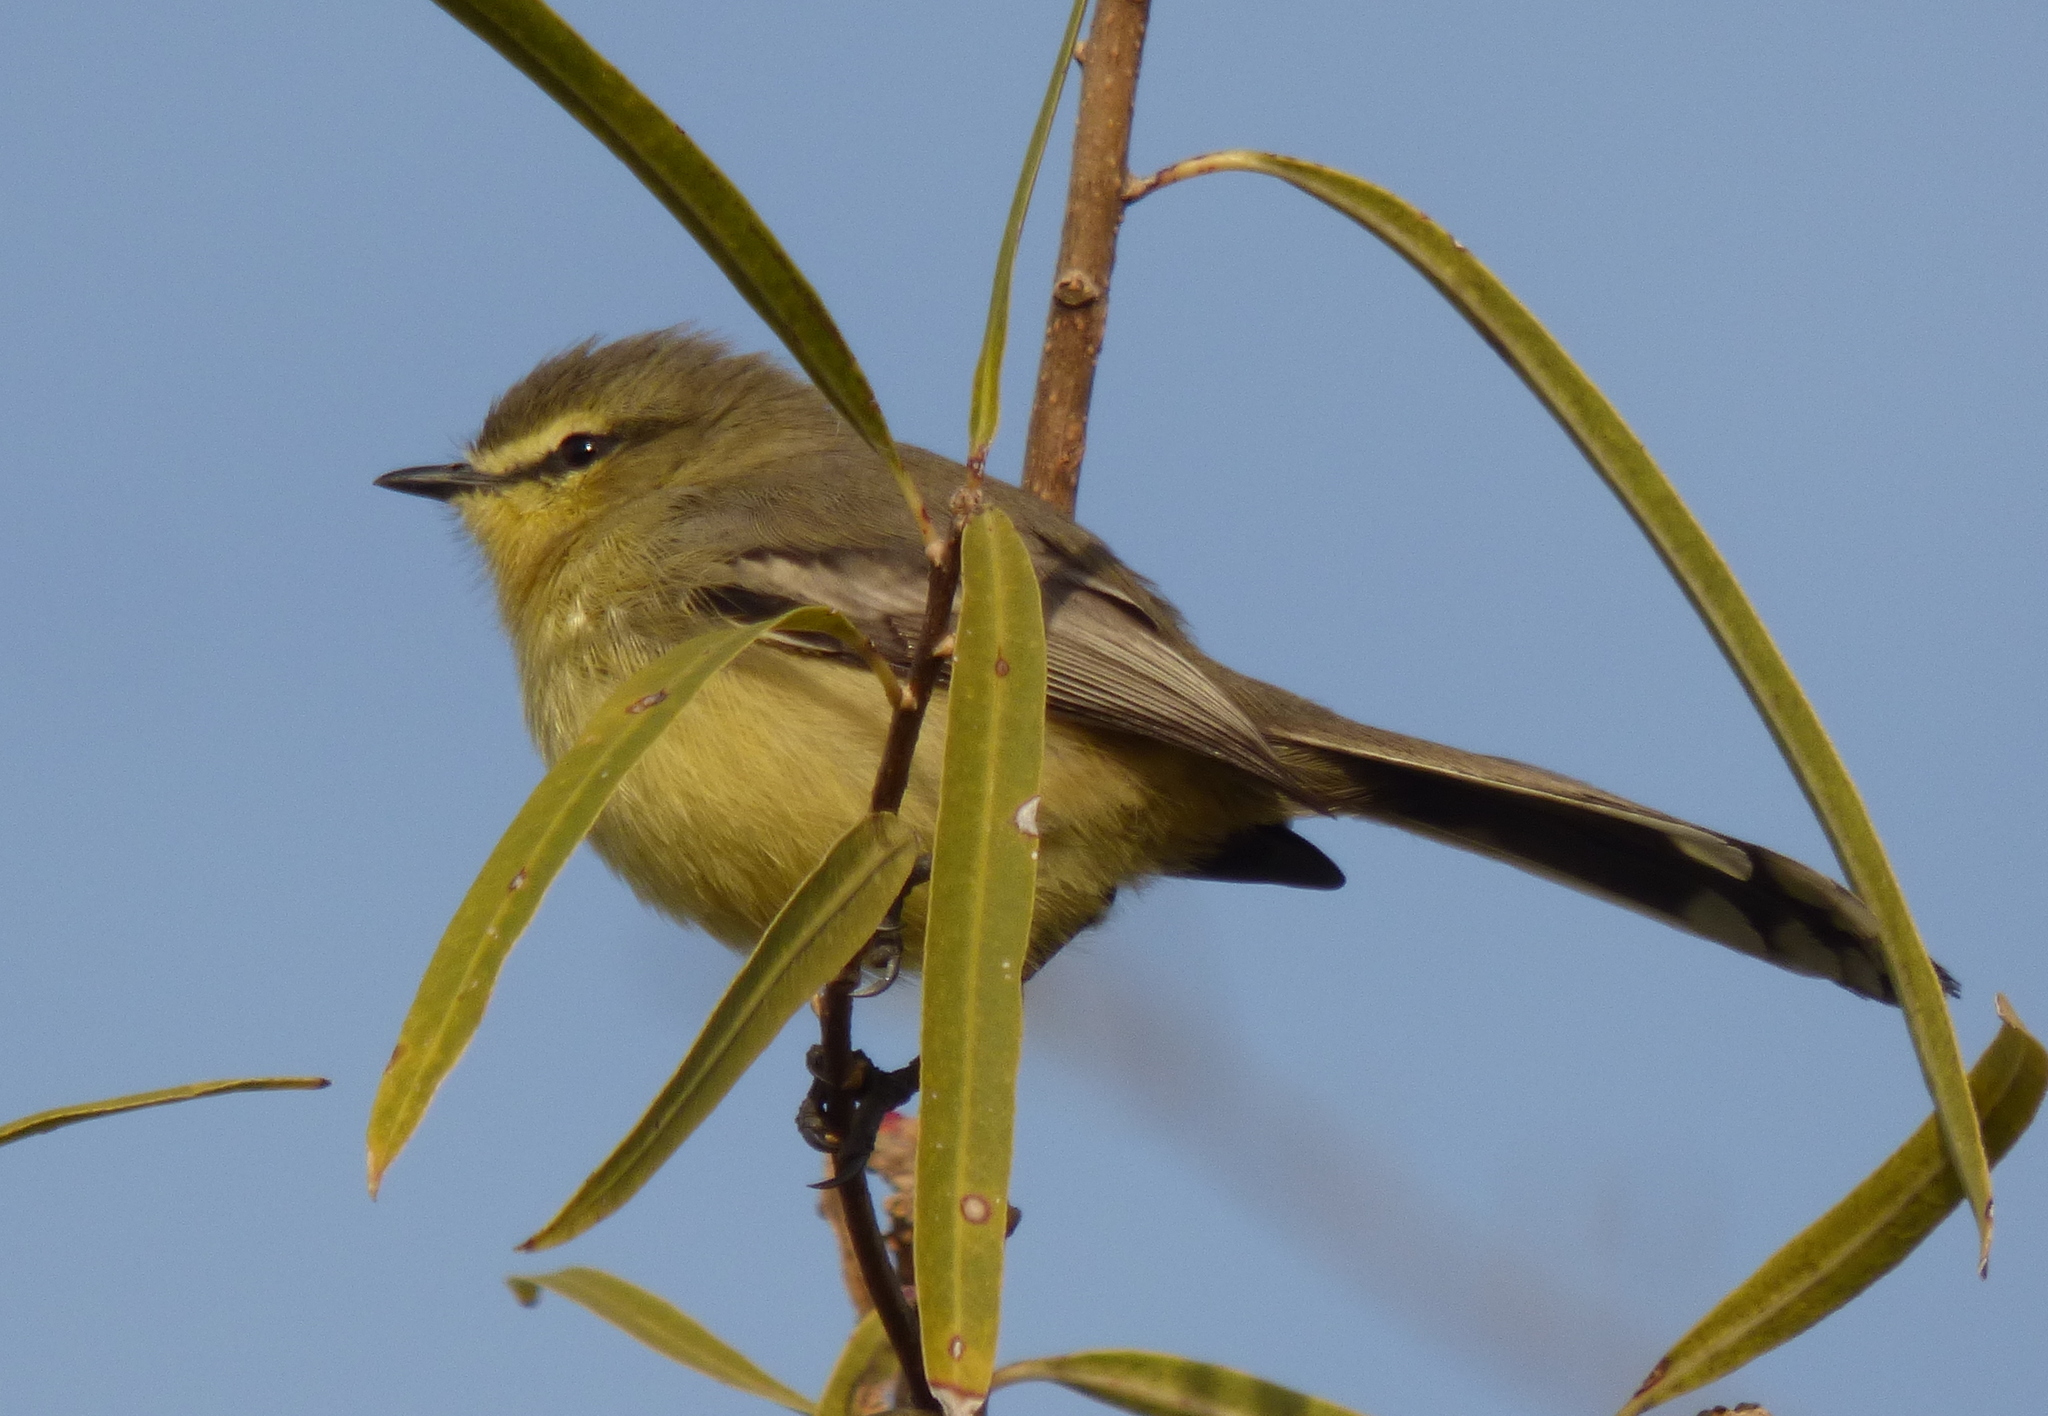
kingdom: Animalia
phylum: Chordata
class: Aves
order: Passeriformes
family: Tyrannidae
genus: Stigmatura
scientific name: Stigmatura budytoides
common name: Greater wagtail-tyrant
